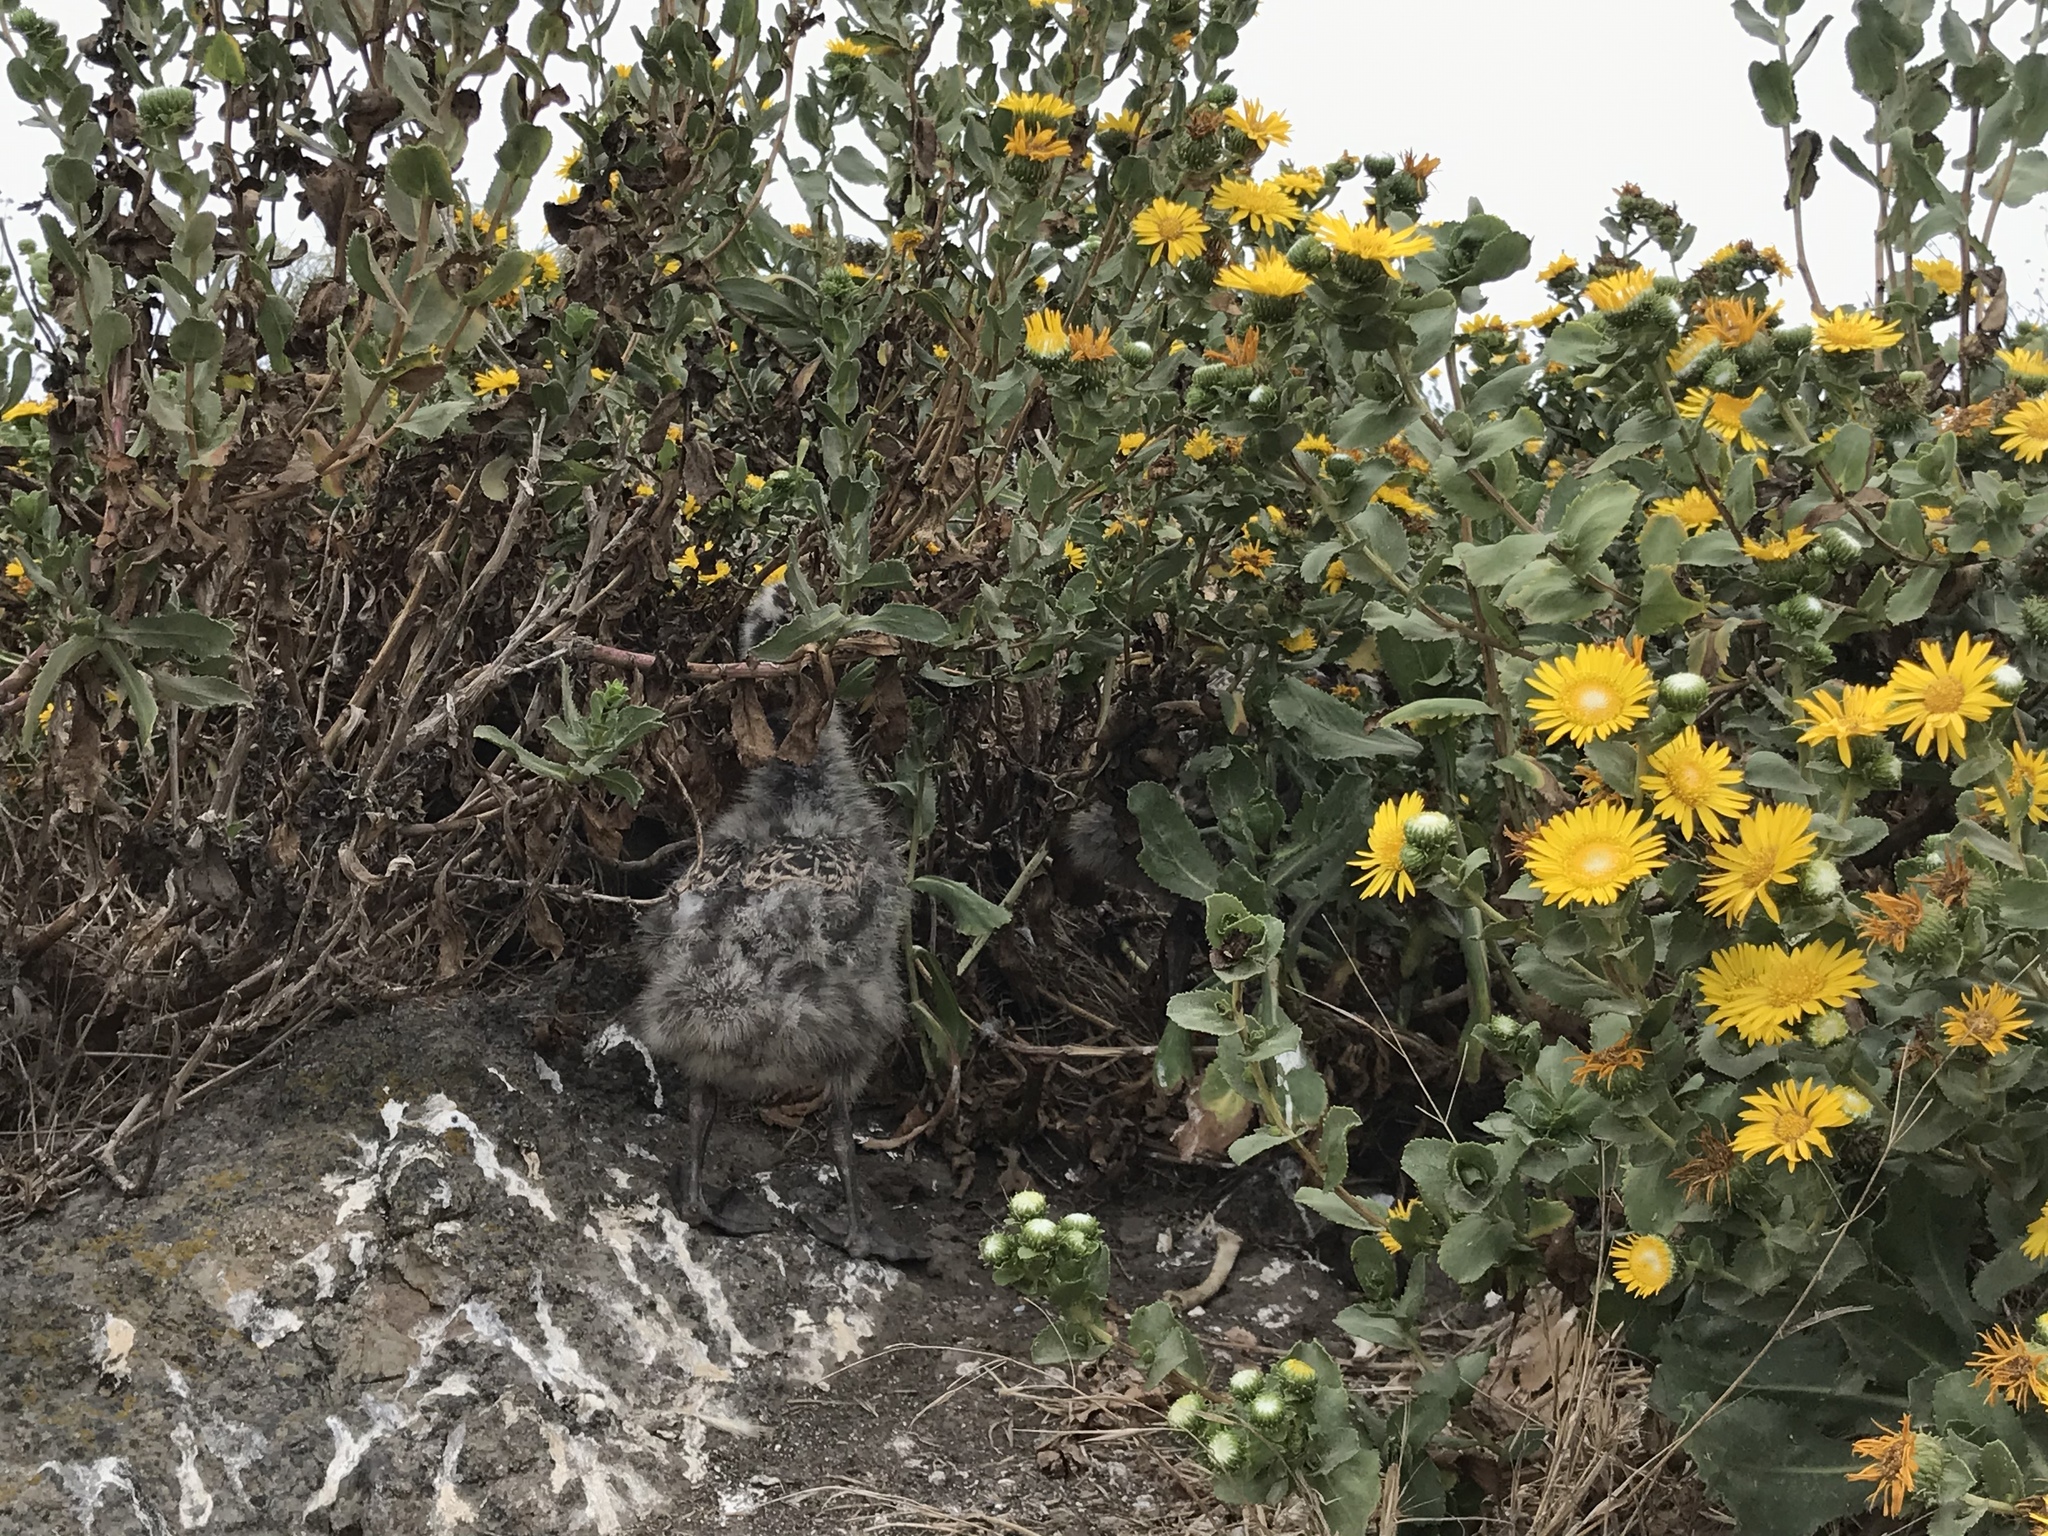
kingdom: Animalia
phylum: Chordata
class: Aves
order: Charadriiformes
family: Laridae
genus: Larus
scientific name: Larus occidentalis
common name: Western gull
